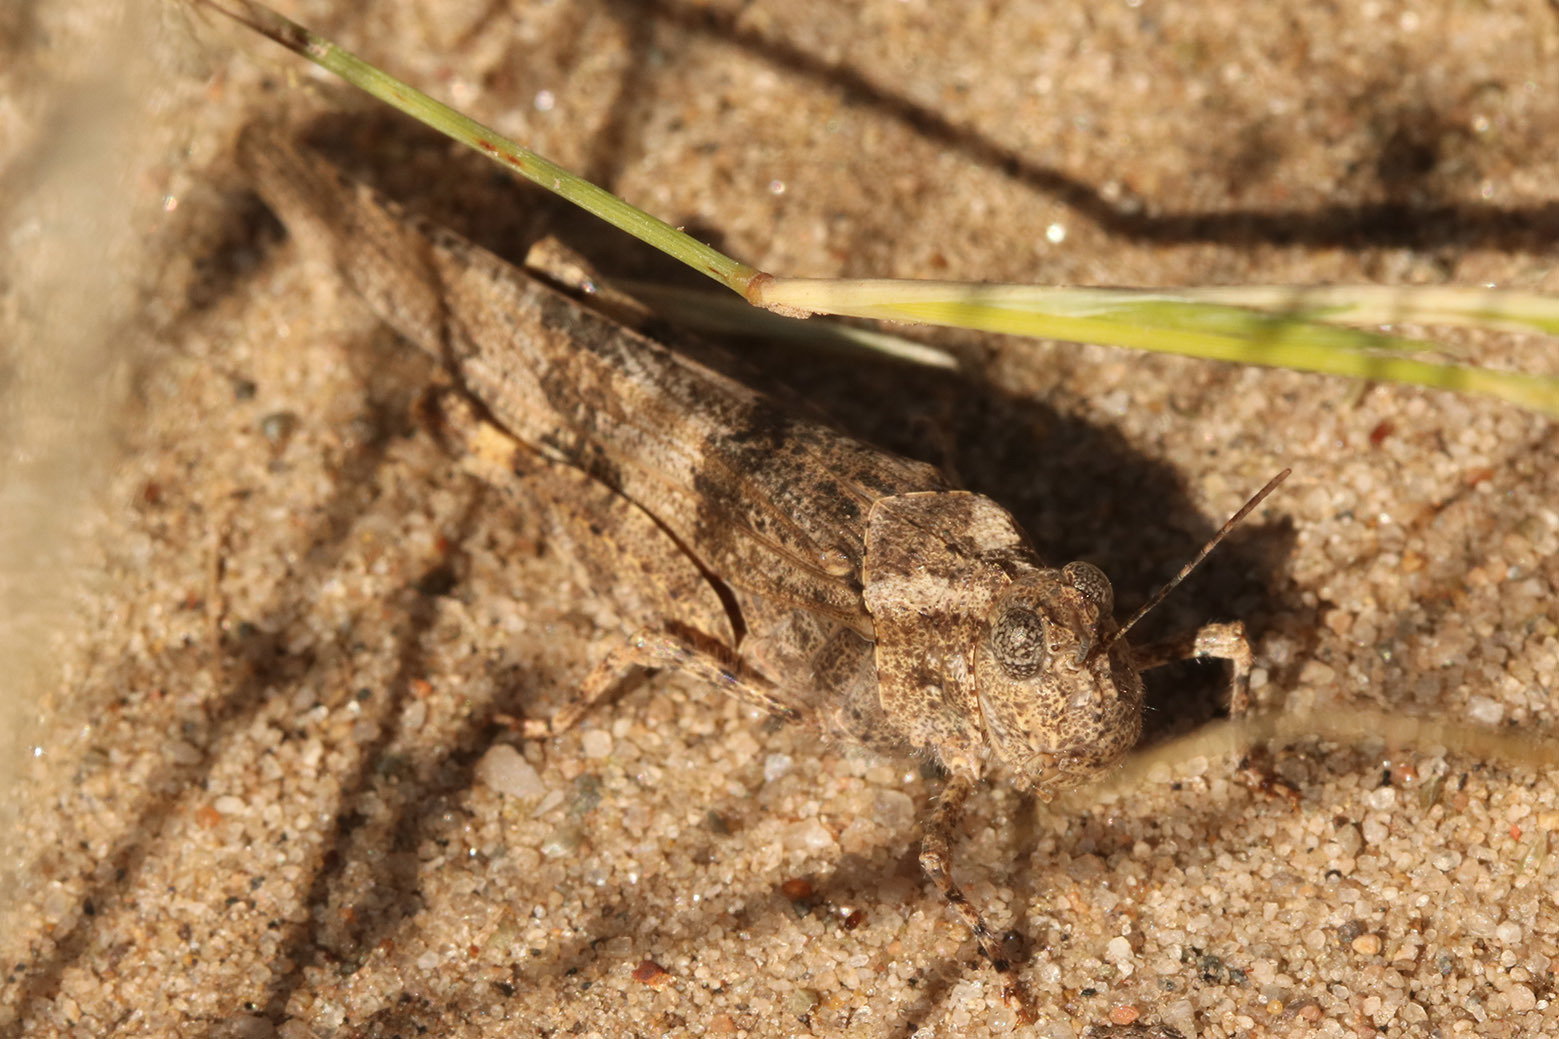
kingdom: Animalia
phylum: Arthropoda
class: Insecta
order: Orthoptera
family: Acrididae
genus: Trimerotropis
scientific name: Trimerotropis pallidipennis
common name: Pallid-winged grasshopper
